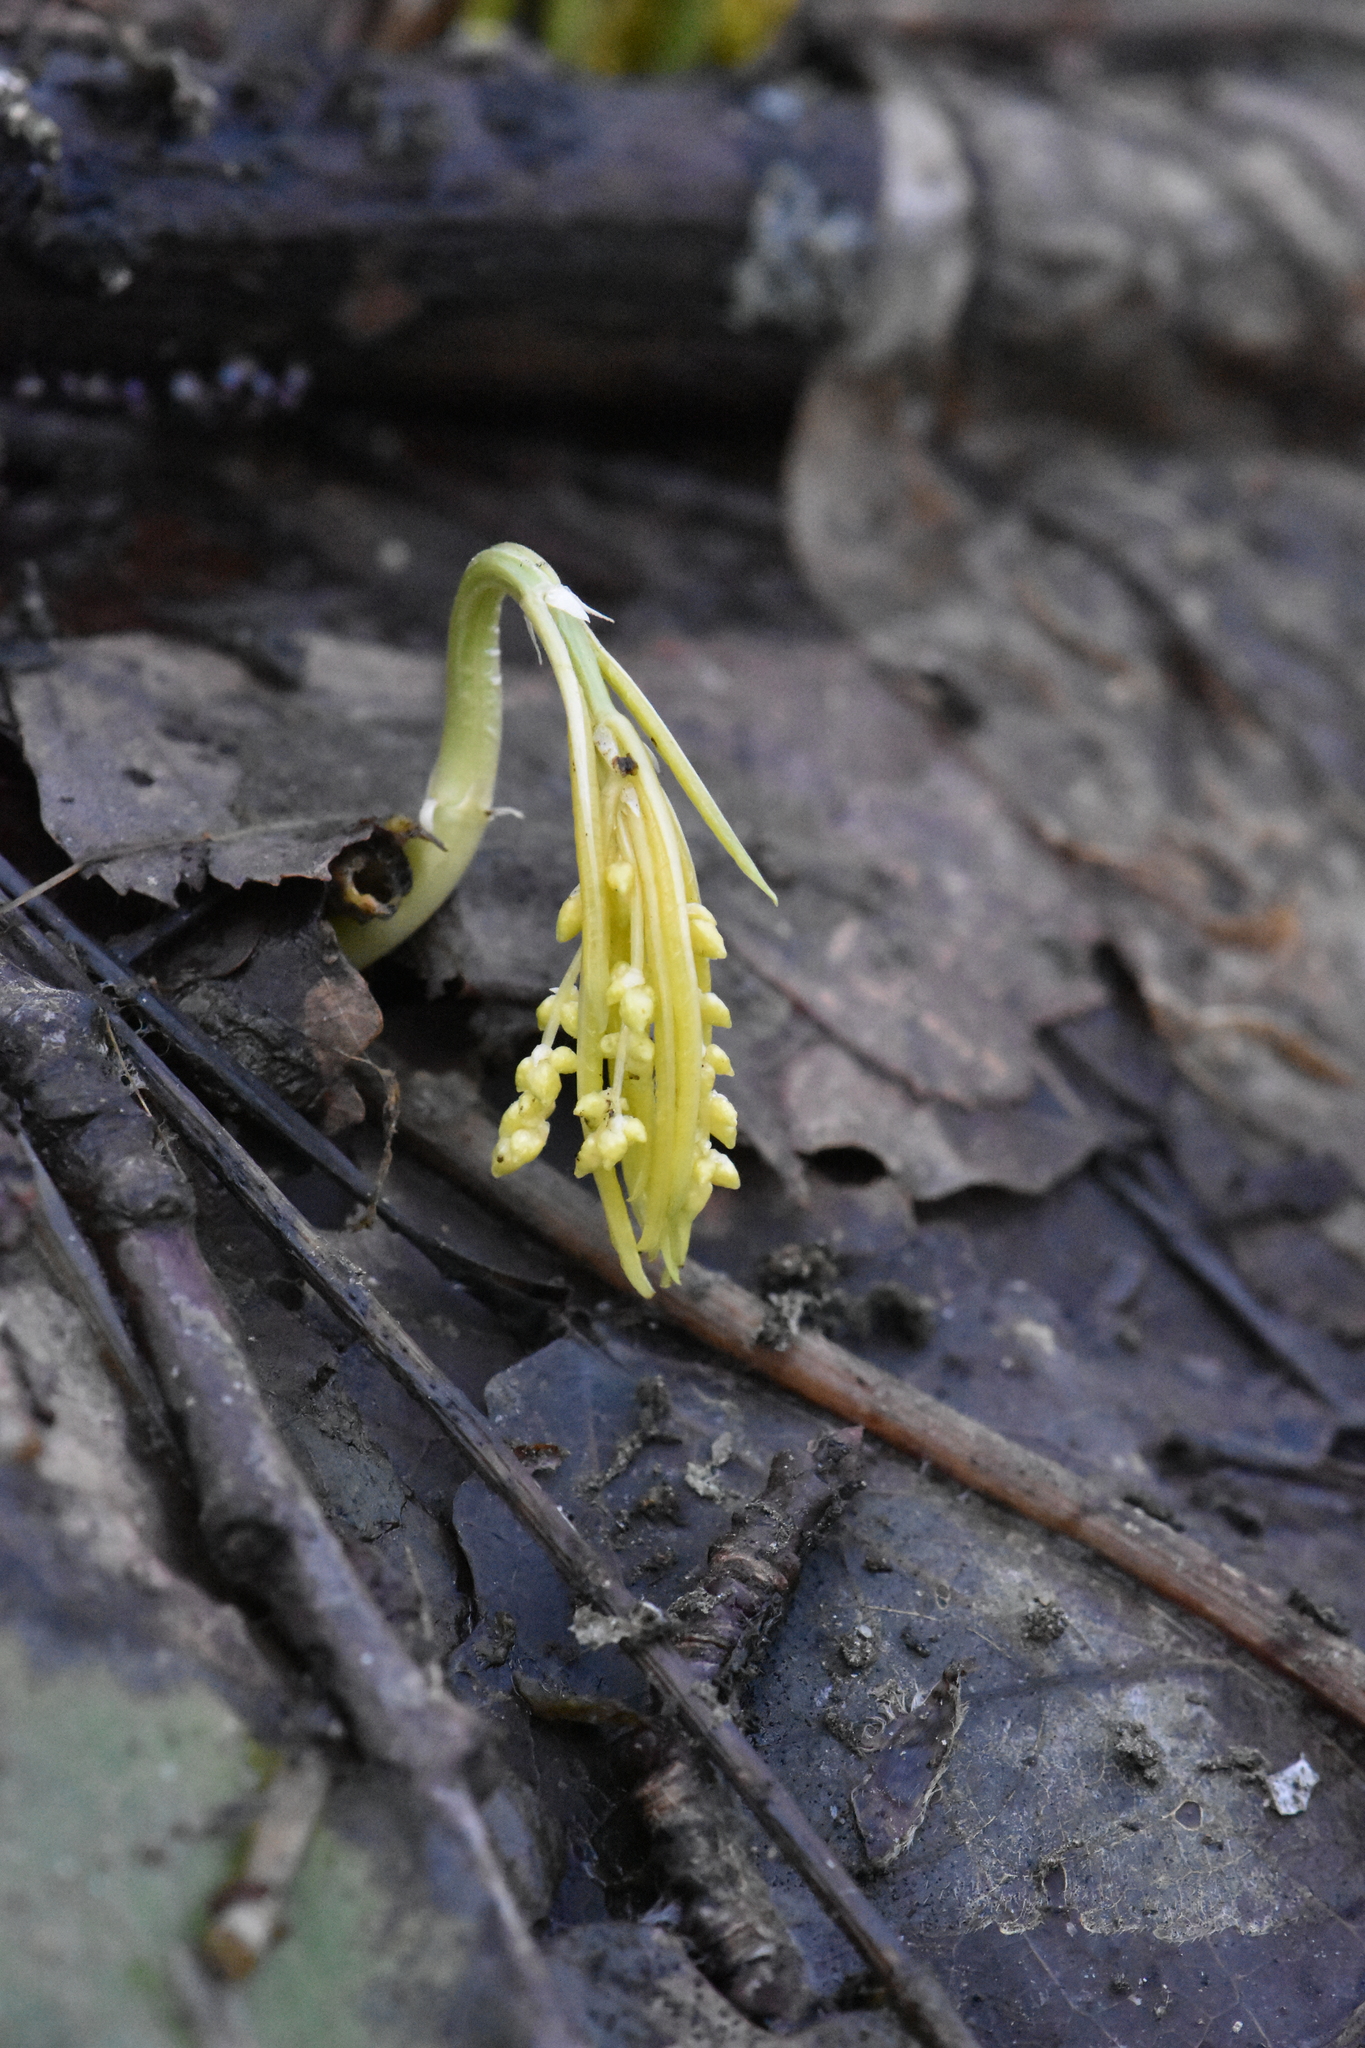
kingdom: Plantae
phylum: Tracheophyta
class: Magnoliopsida
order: Malpighiales
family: Euphorbiaceae
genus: Mercurialis
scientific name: Mercurialis perennis
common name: Dog mercury
